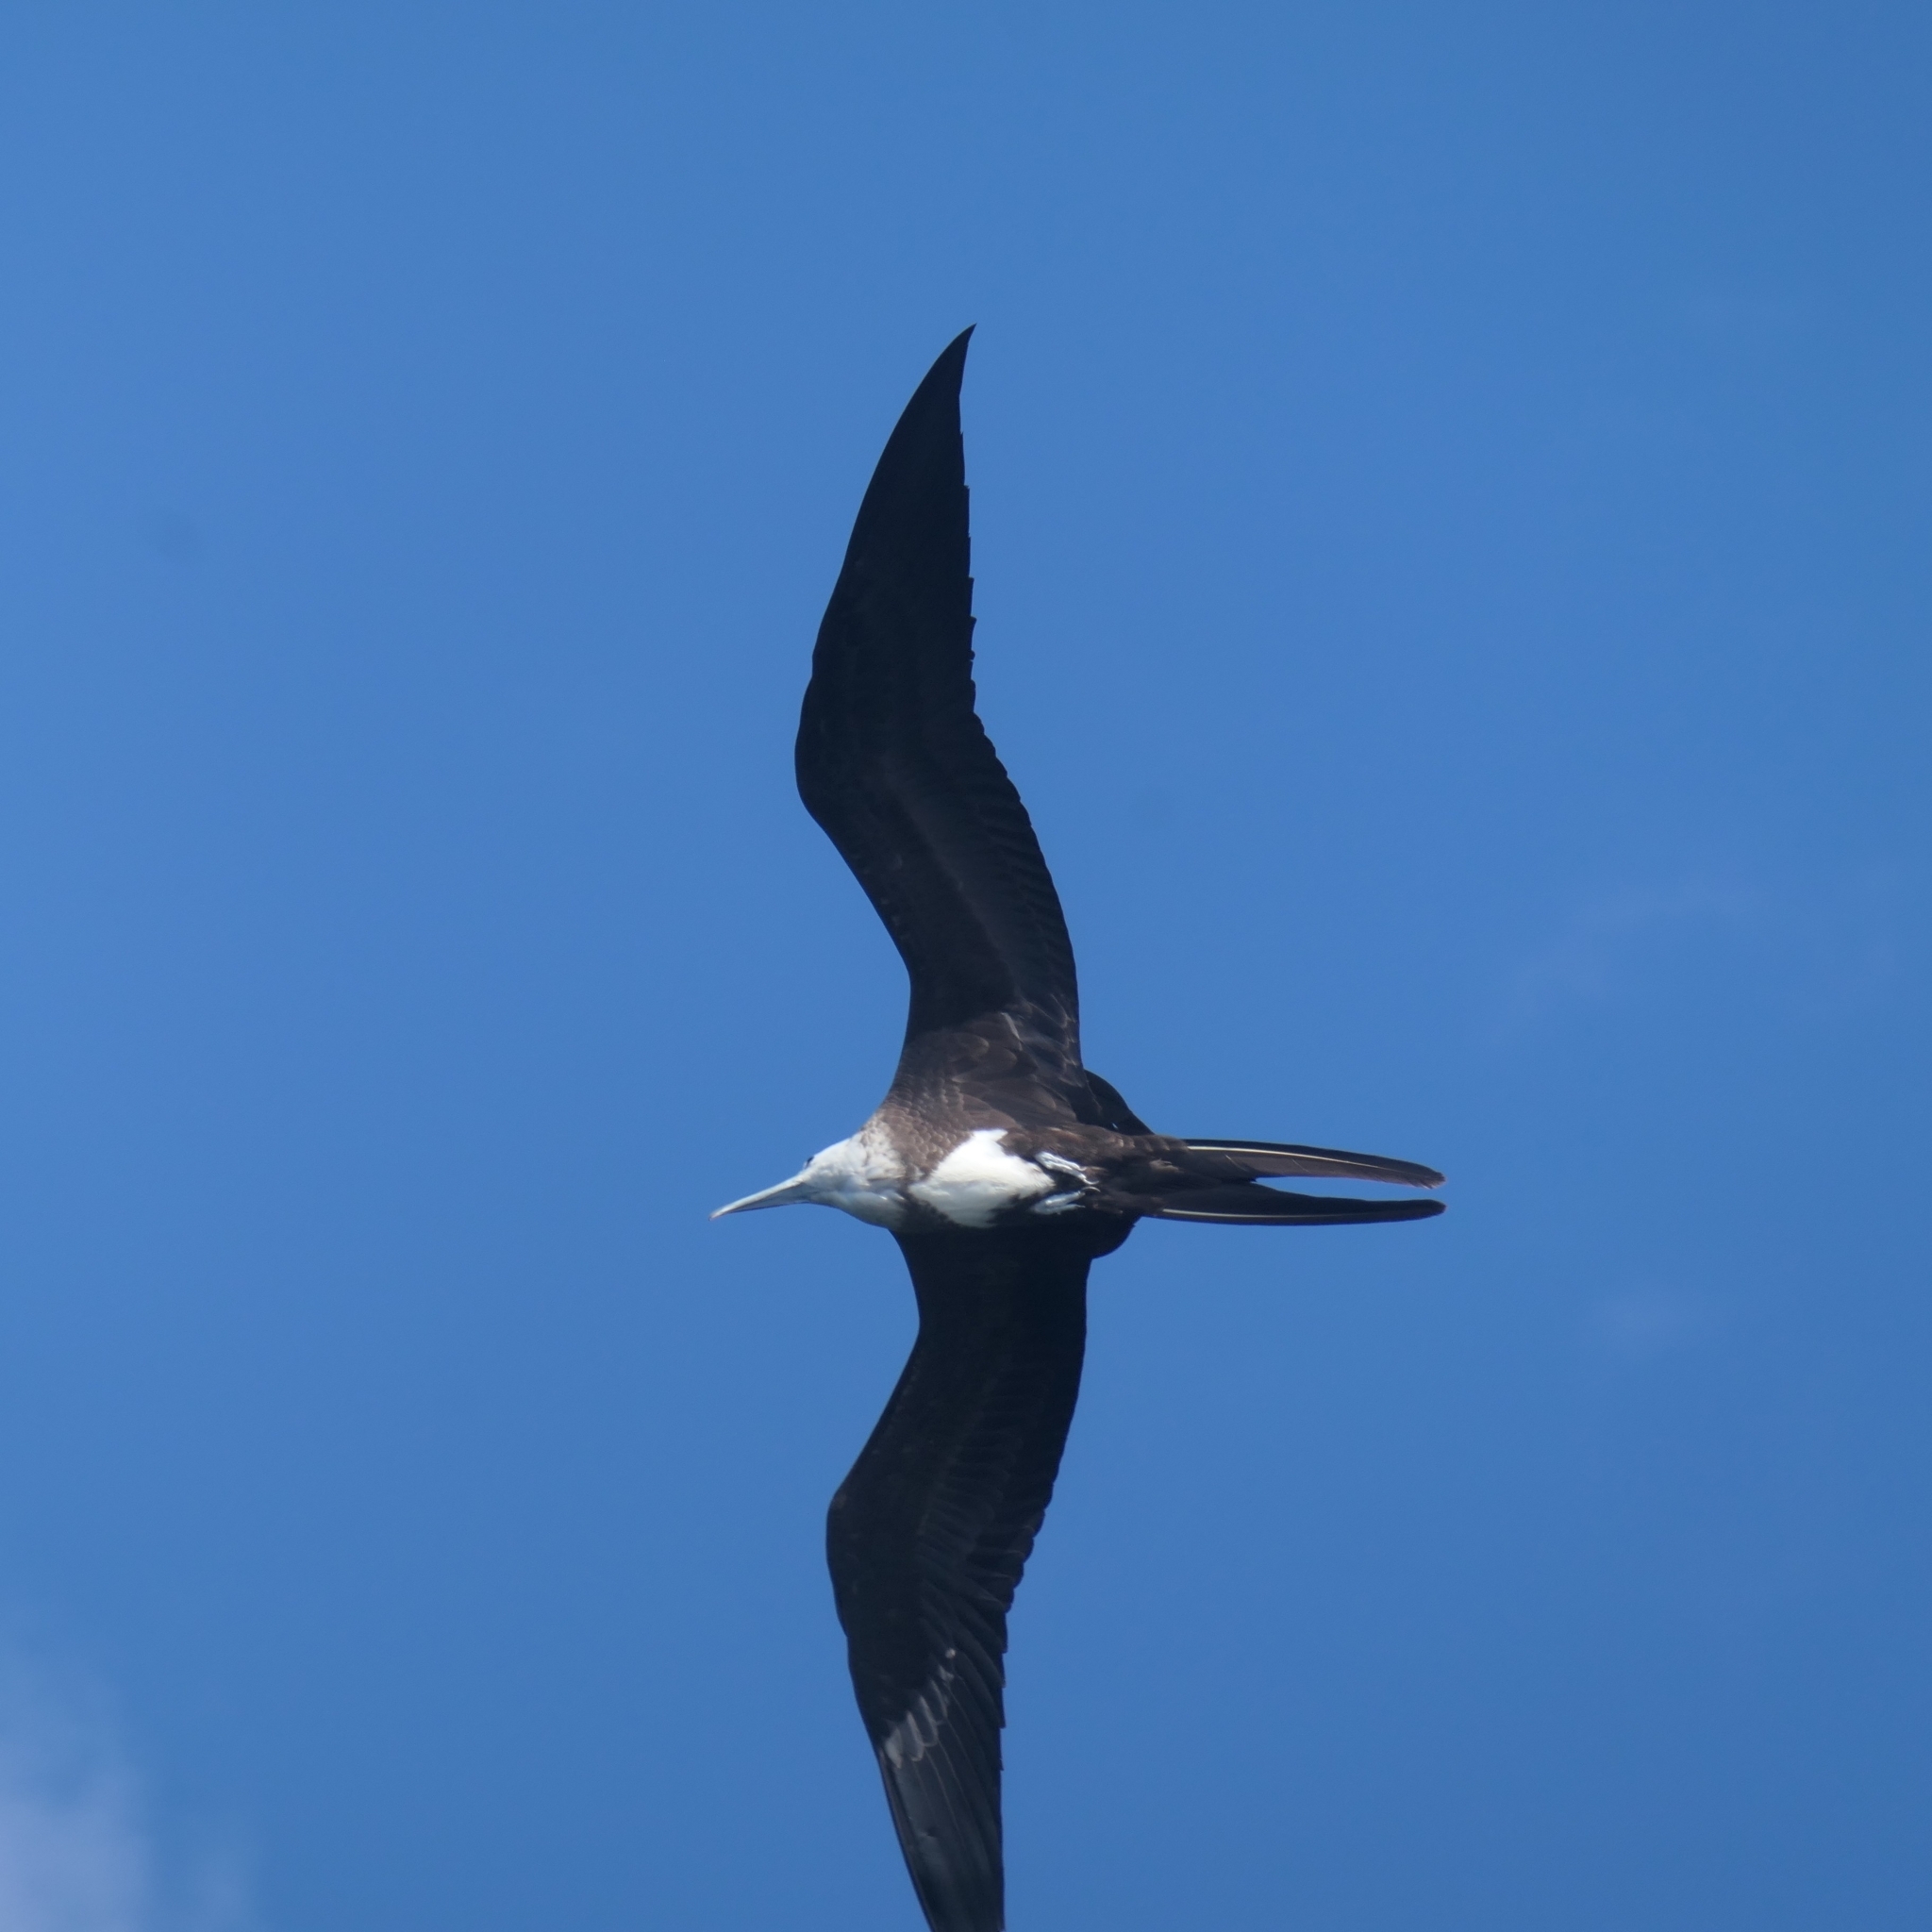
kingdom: Animalia
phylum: Chordata
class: Aves
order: Suliformes
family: Fregatidae
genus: Fregata
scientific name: Fregata magnificens
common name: Magnificent frigatebird
